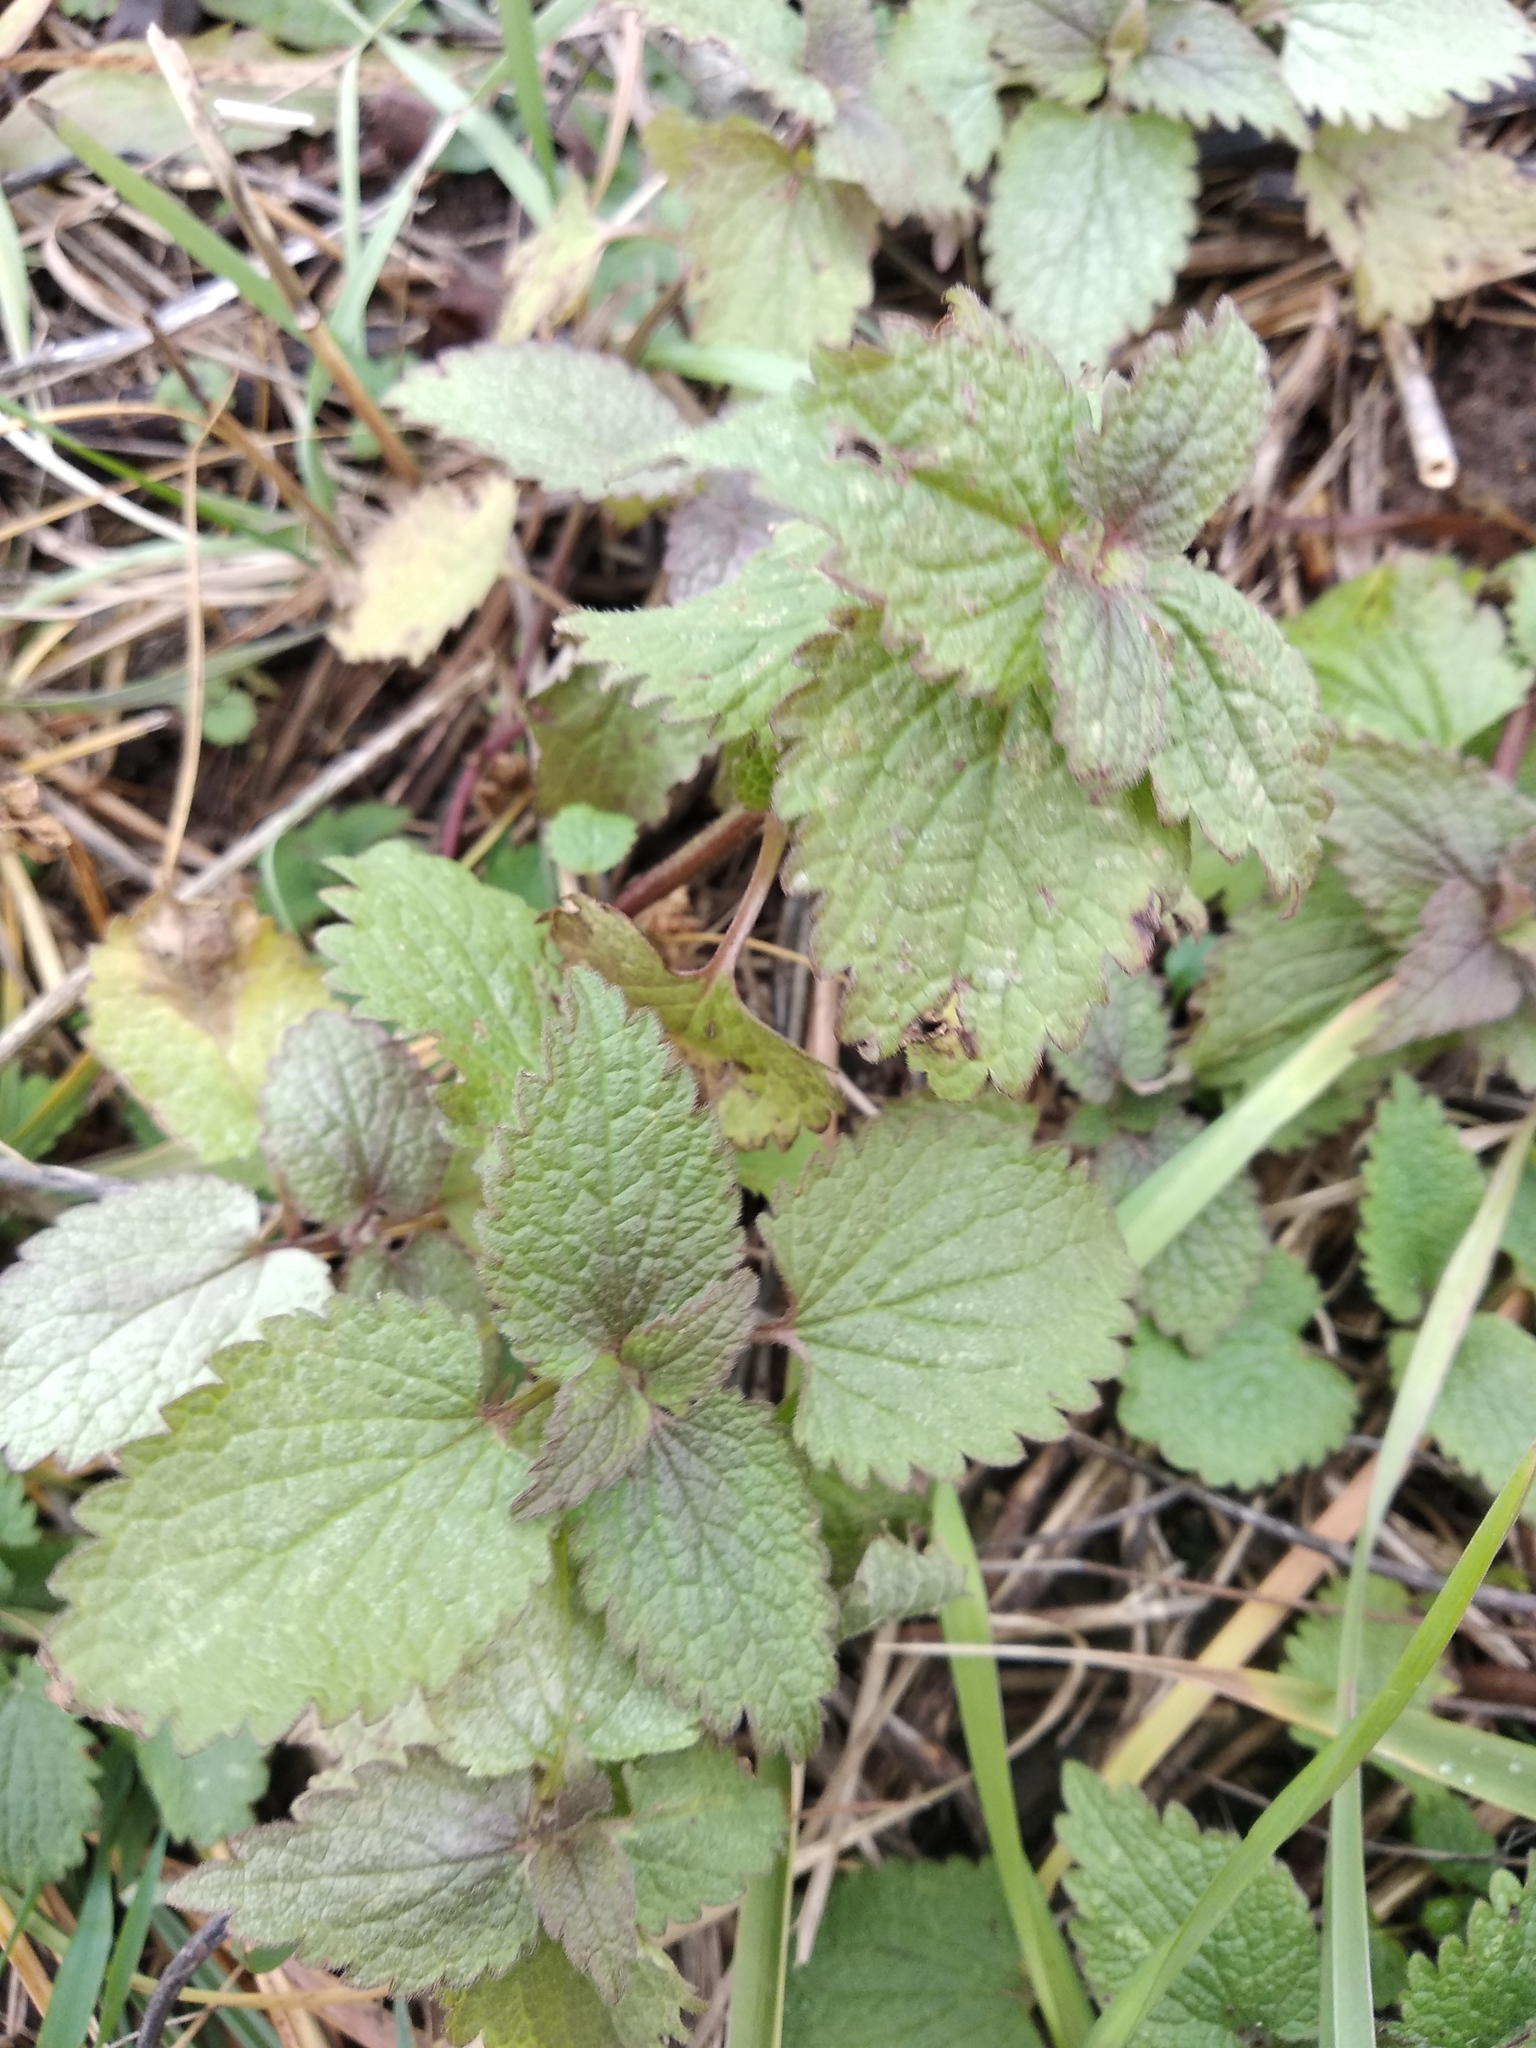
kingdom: Plantae
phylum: Tracheophyta
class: Magnoliopsida
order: Lamiales
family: Lamiaceae
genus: Lamium
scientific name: Lamium album
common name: White dead-nettle
